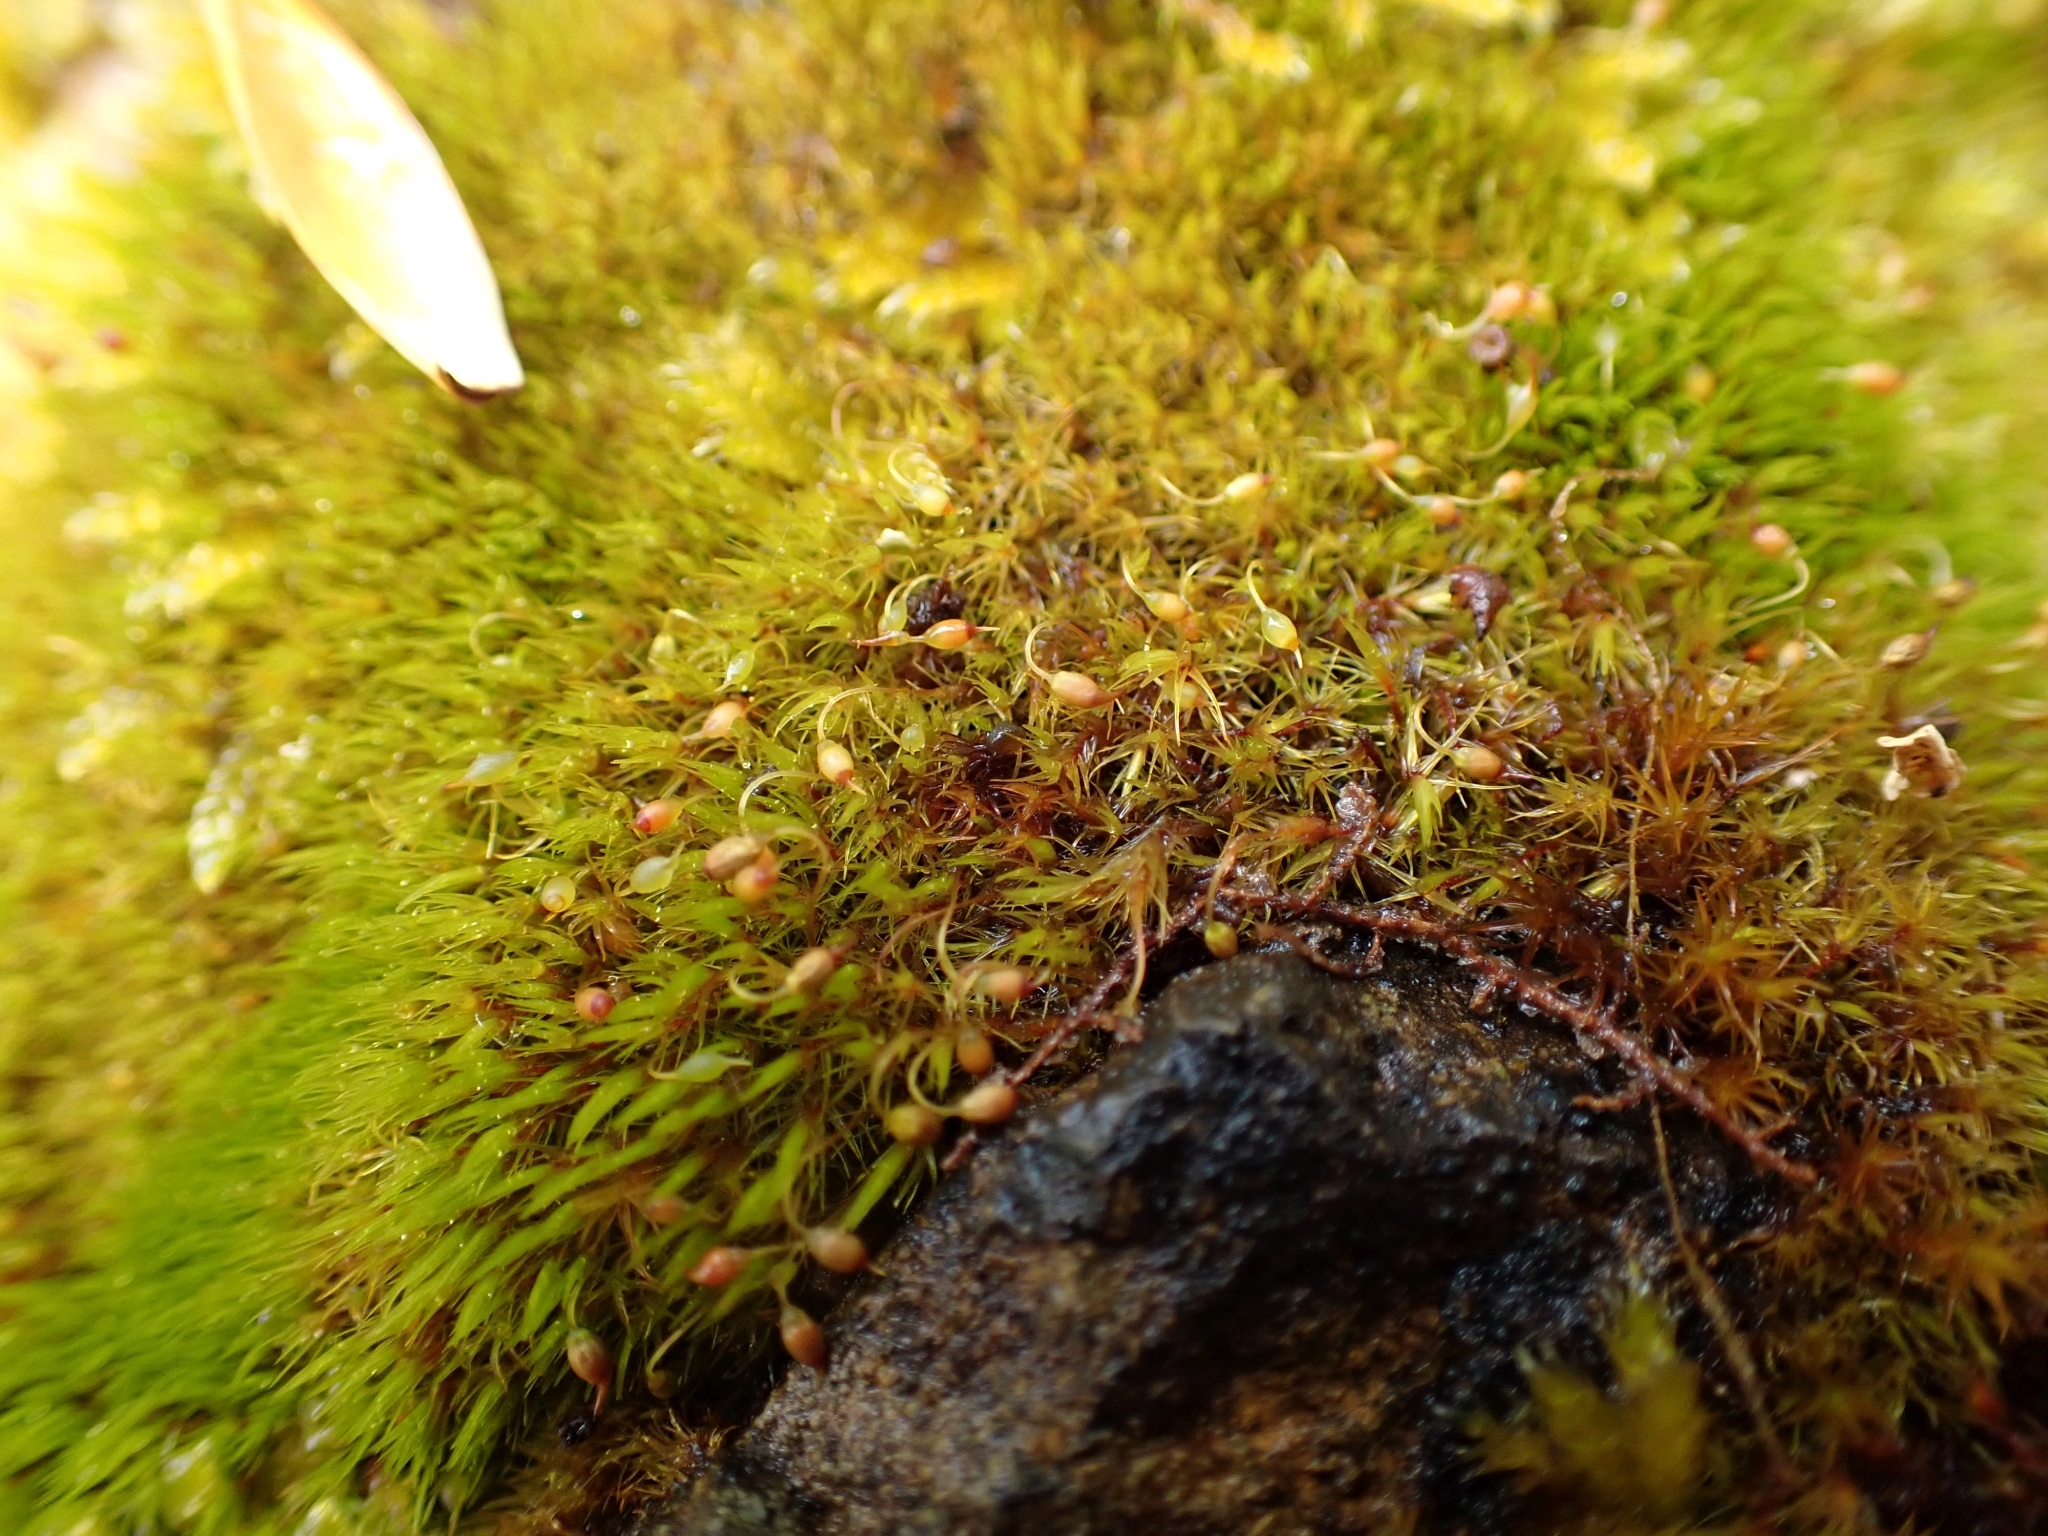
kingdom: Plantae
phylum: Bryophyta
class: Bryopsida
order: Grimmiales
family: Seligeriaceae
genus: Blindia
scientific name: Blindia acuta
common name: Sharp-leaved blind's moss
